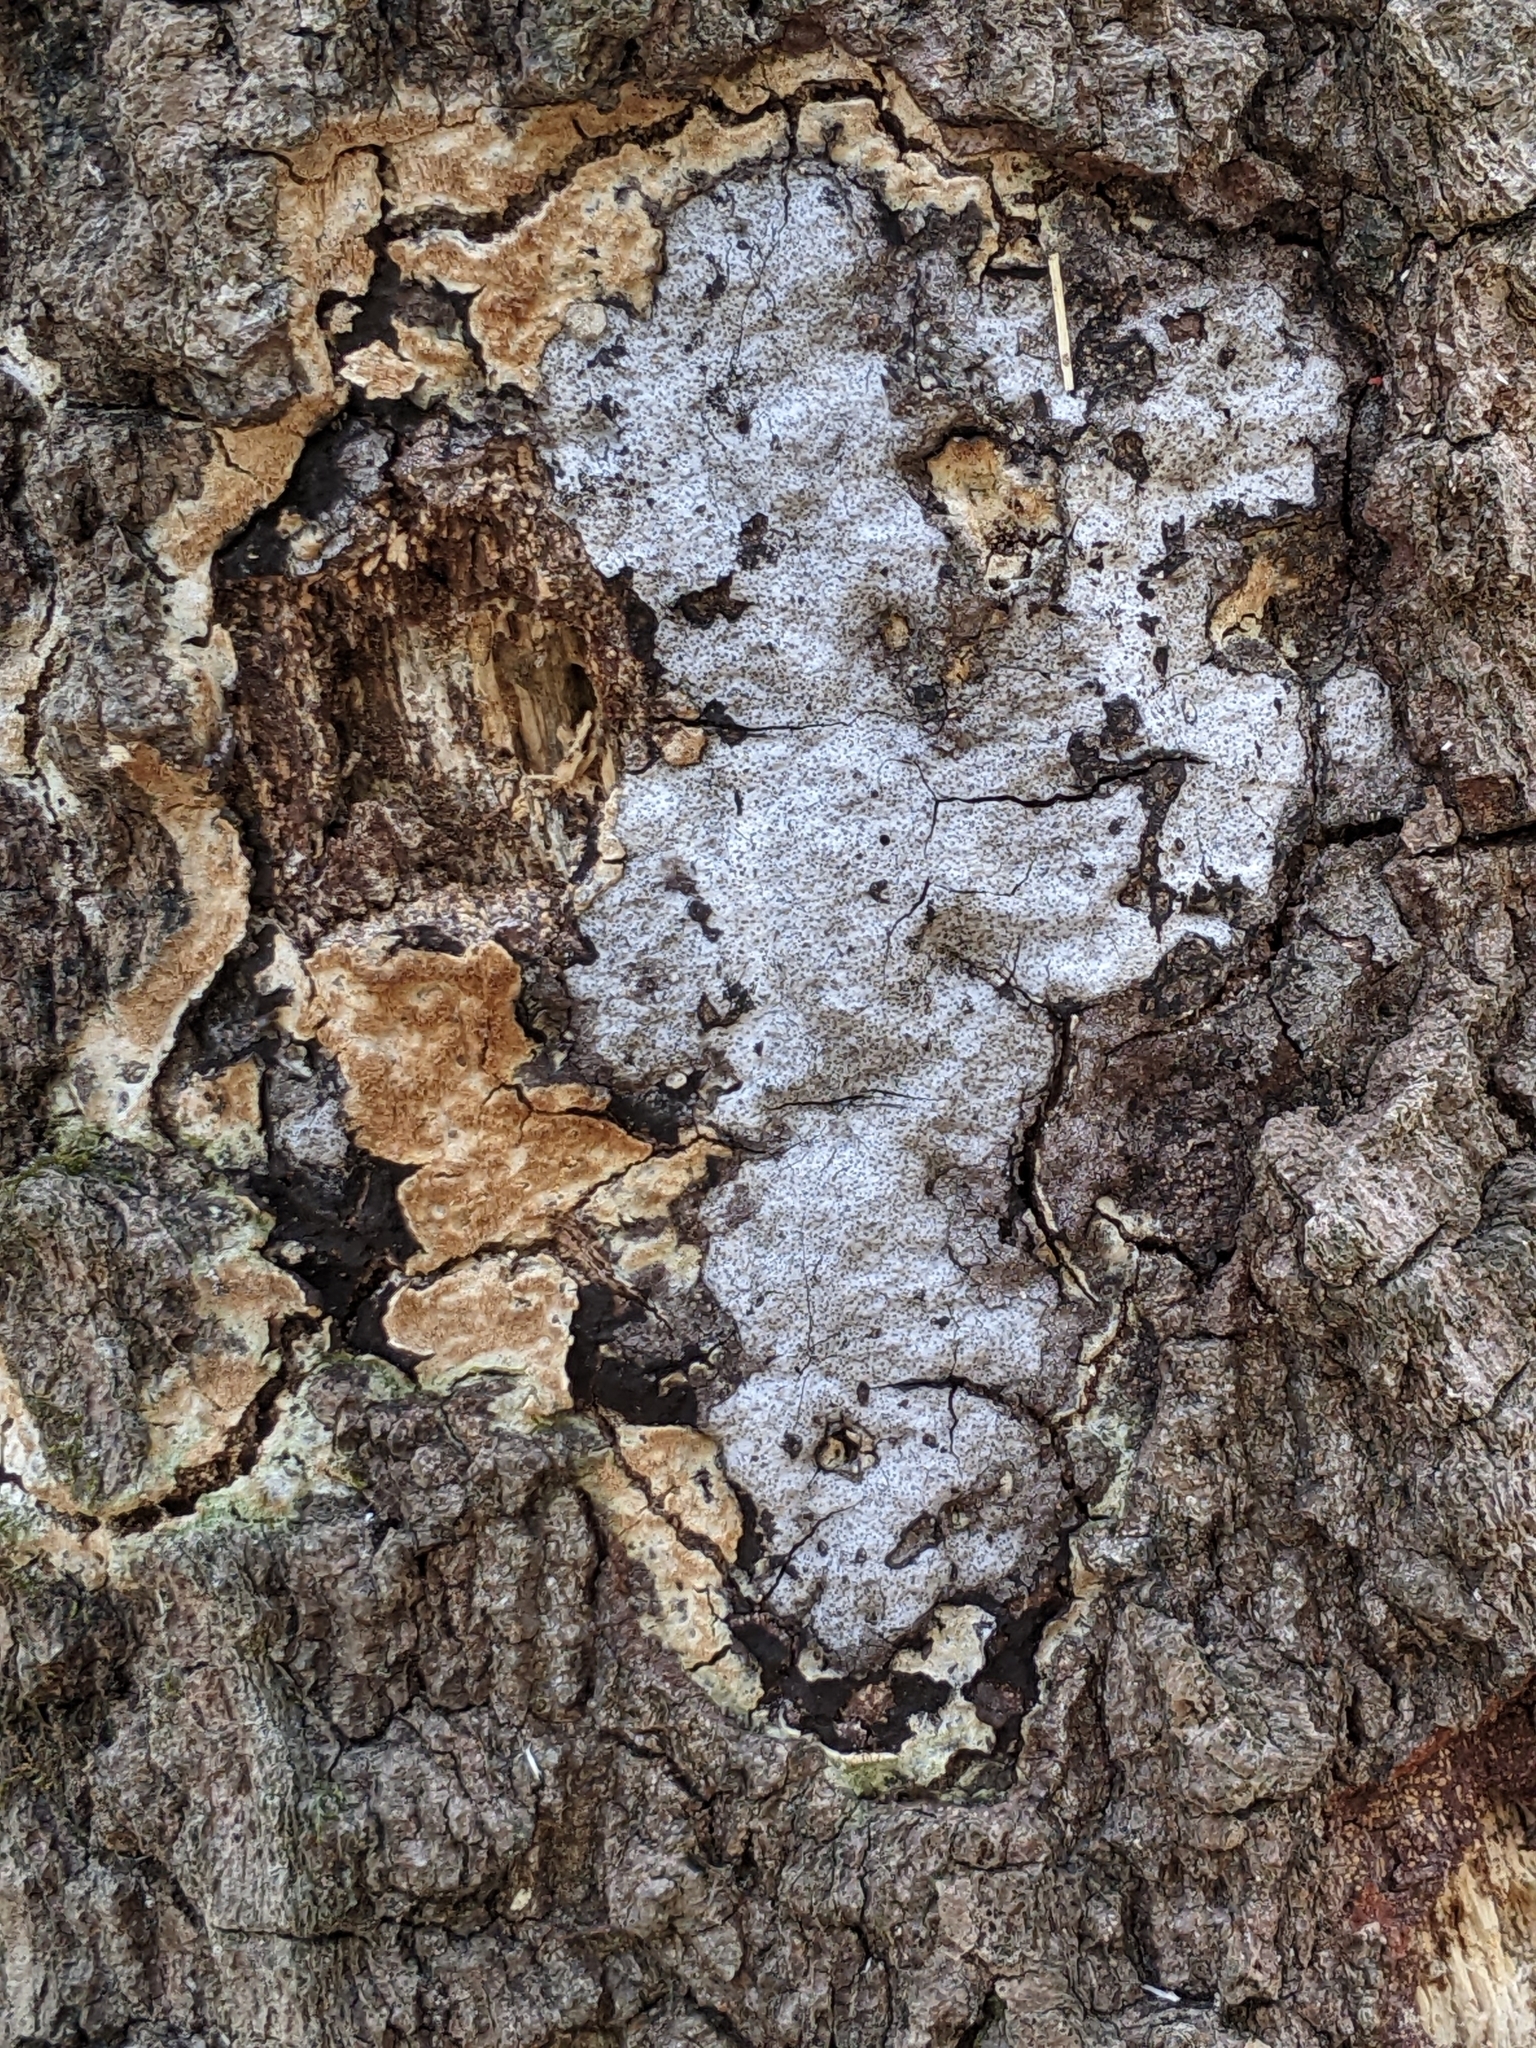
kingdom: Fungi
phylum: Ascomycota
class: Sordariomycetes
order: Xylariales
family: Graphostromataceae
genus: Biscogniauxia
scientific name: Biscogniauxia atropunctata
